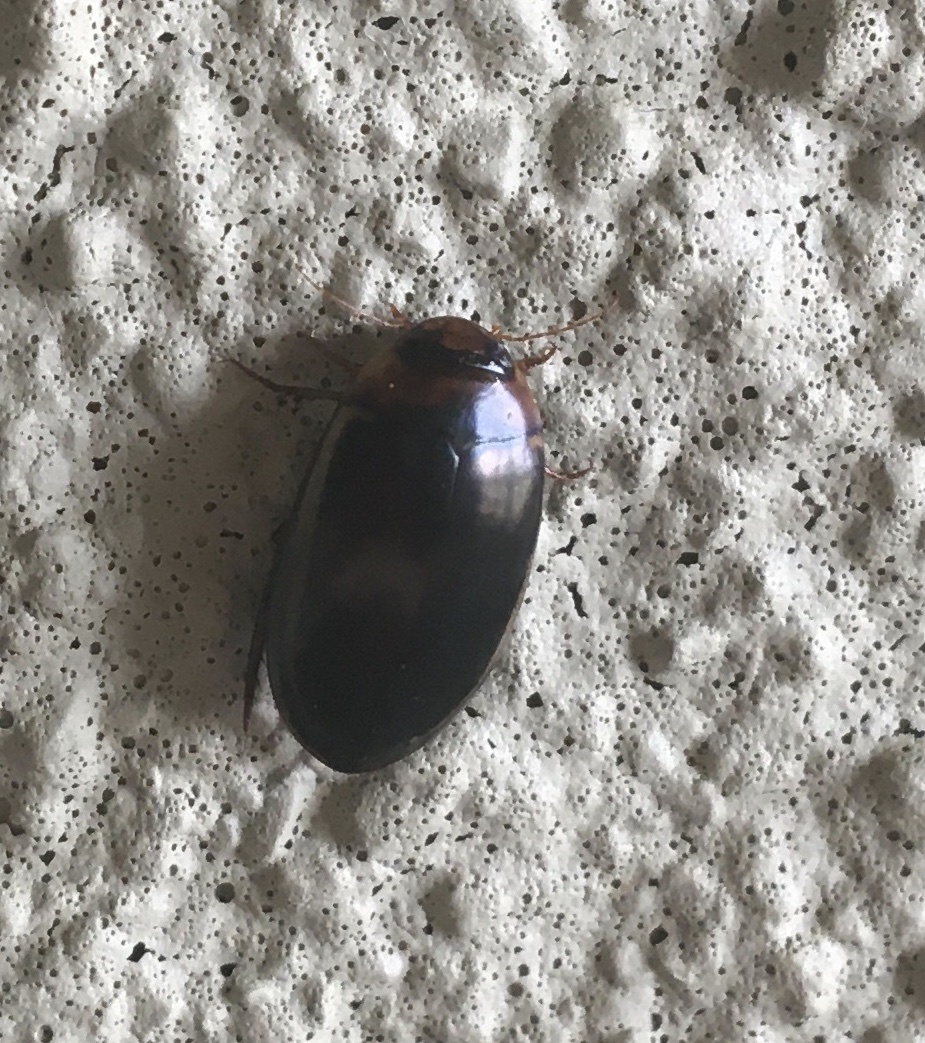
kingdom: Animalia
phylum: Arthropoda
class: Insecta
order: Coleoptera
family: Dytiscidae
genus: Hydaticus
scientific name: Hydaticus bimarginatus
